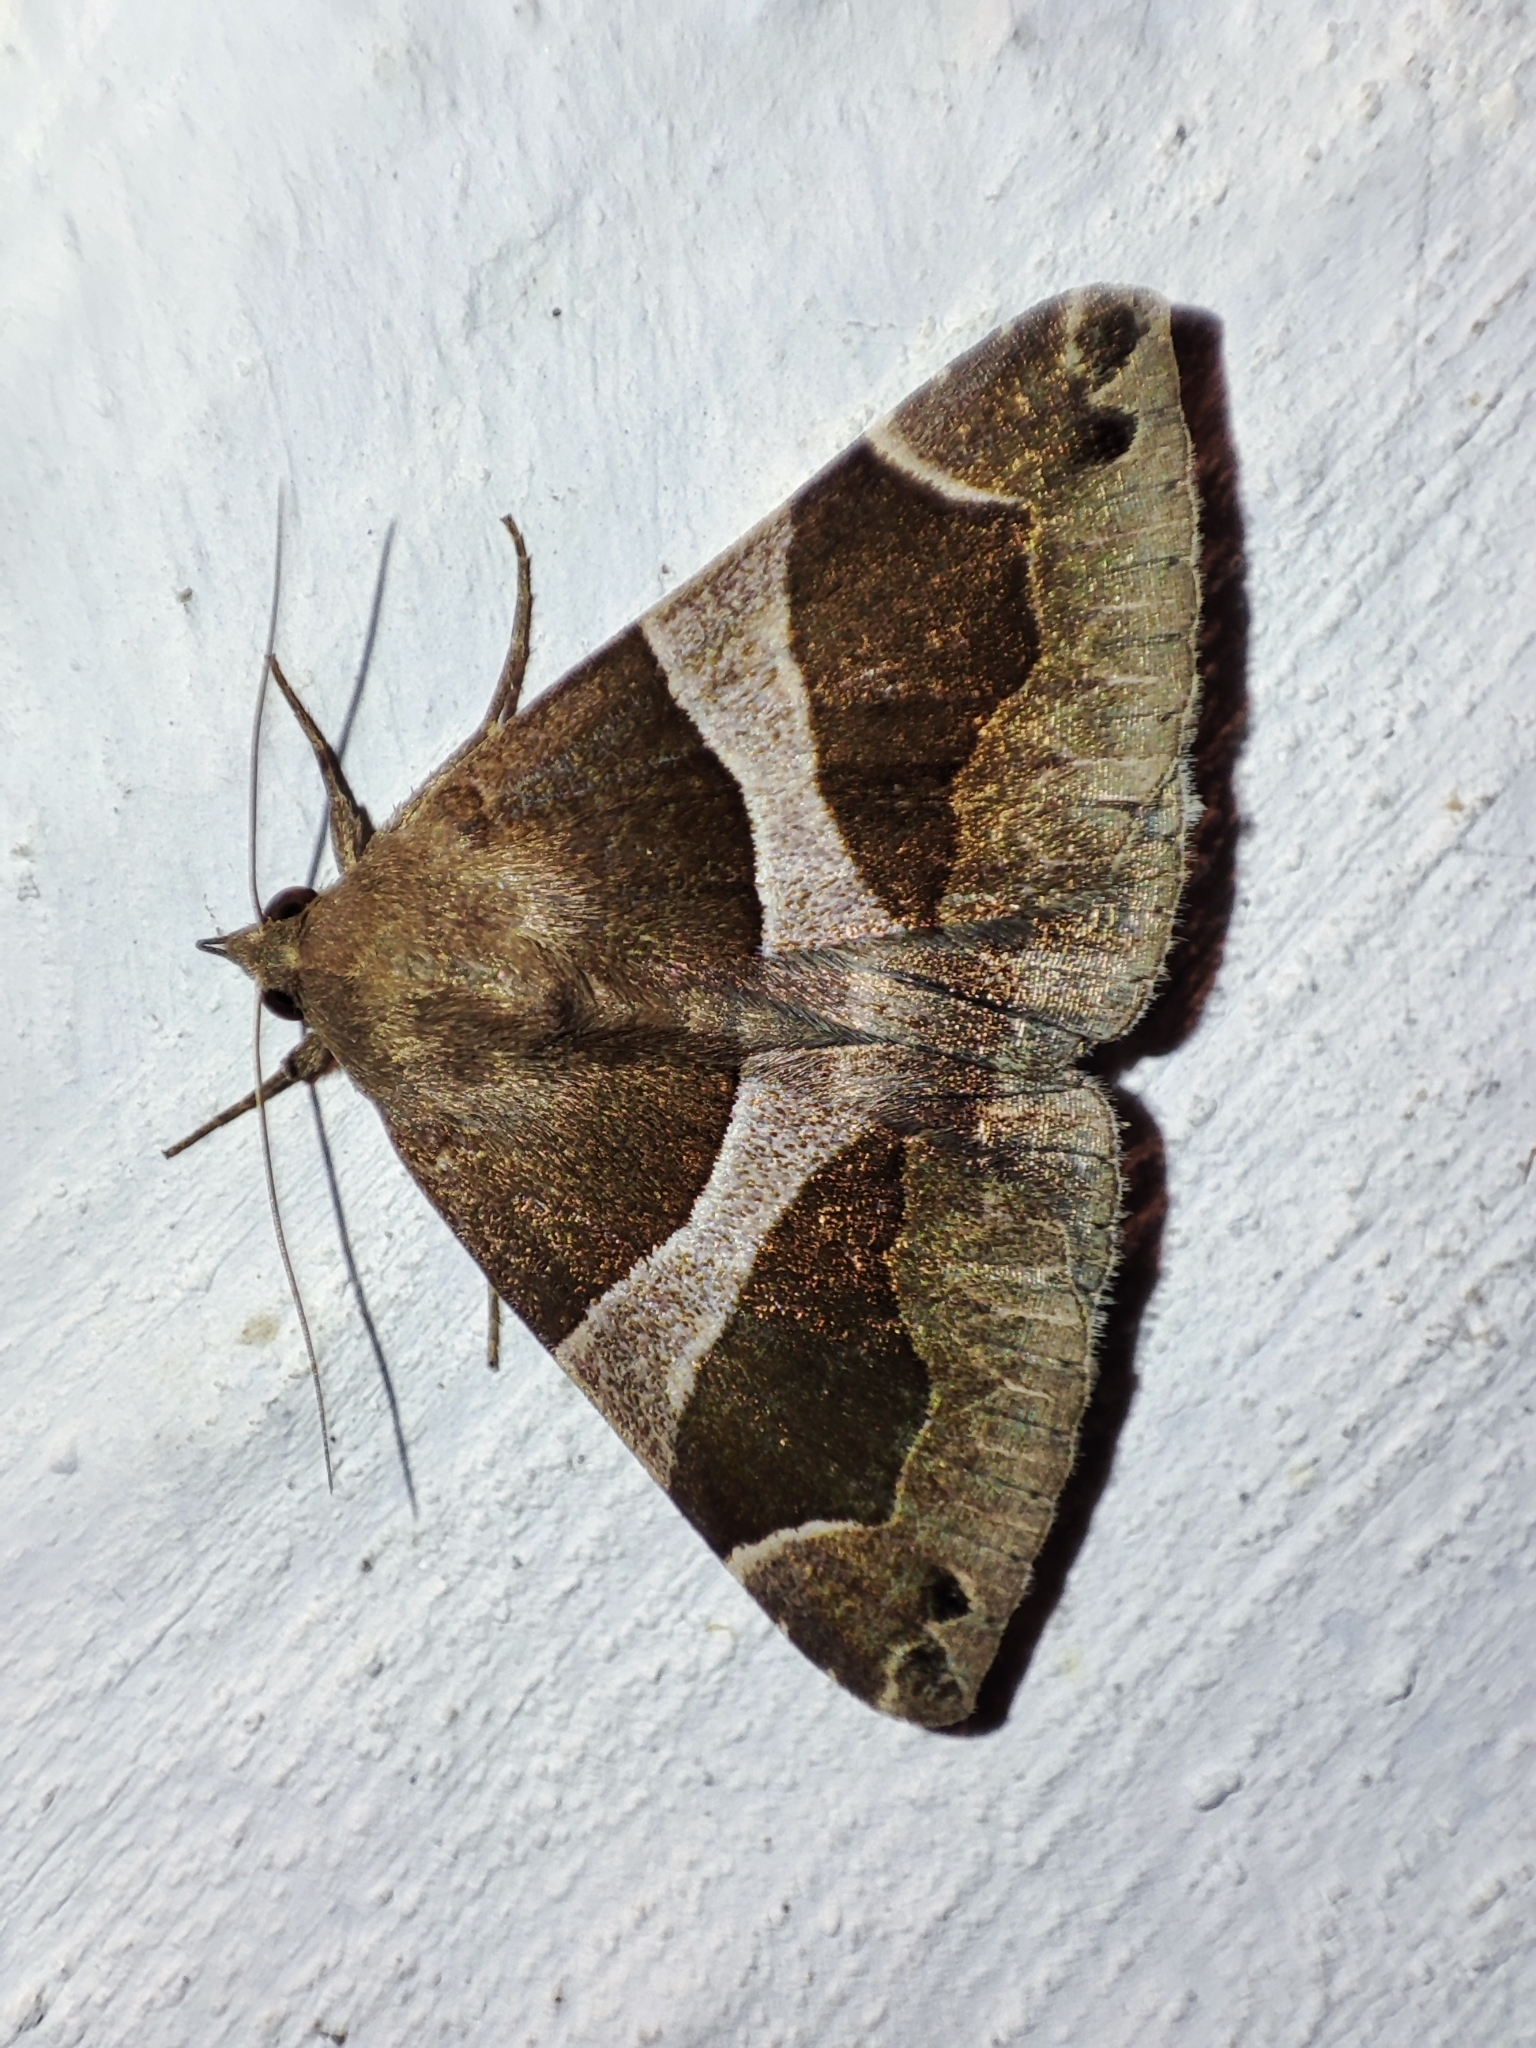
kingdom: Animalia
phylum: Arthropoda
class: Insecta
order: Lepidoptera
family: Erebidae
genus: Dysgonia
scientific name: Dysgonia algira
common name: Passenger
